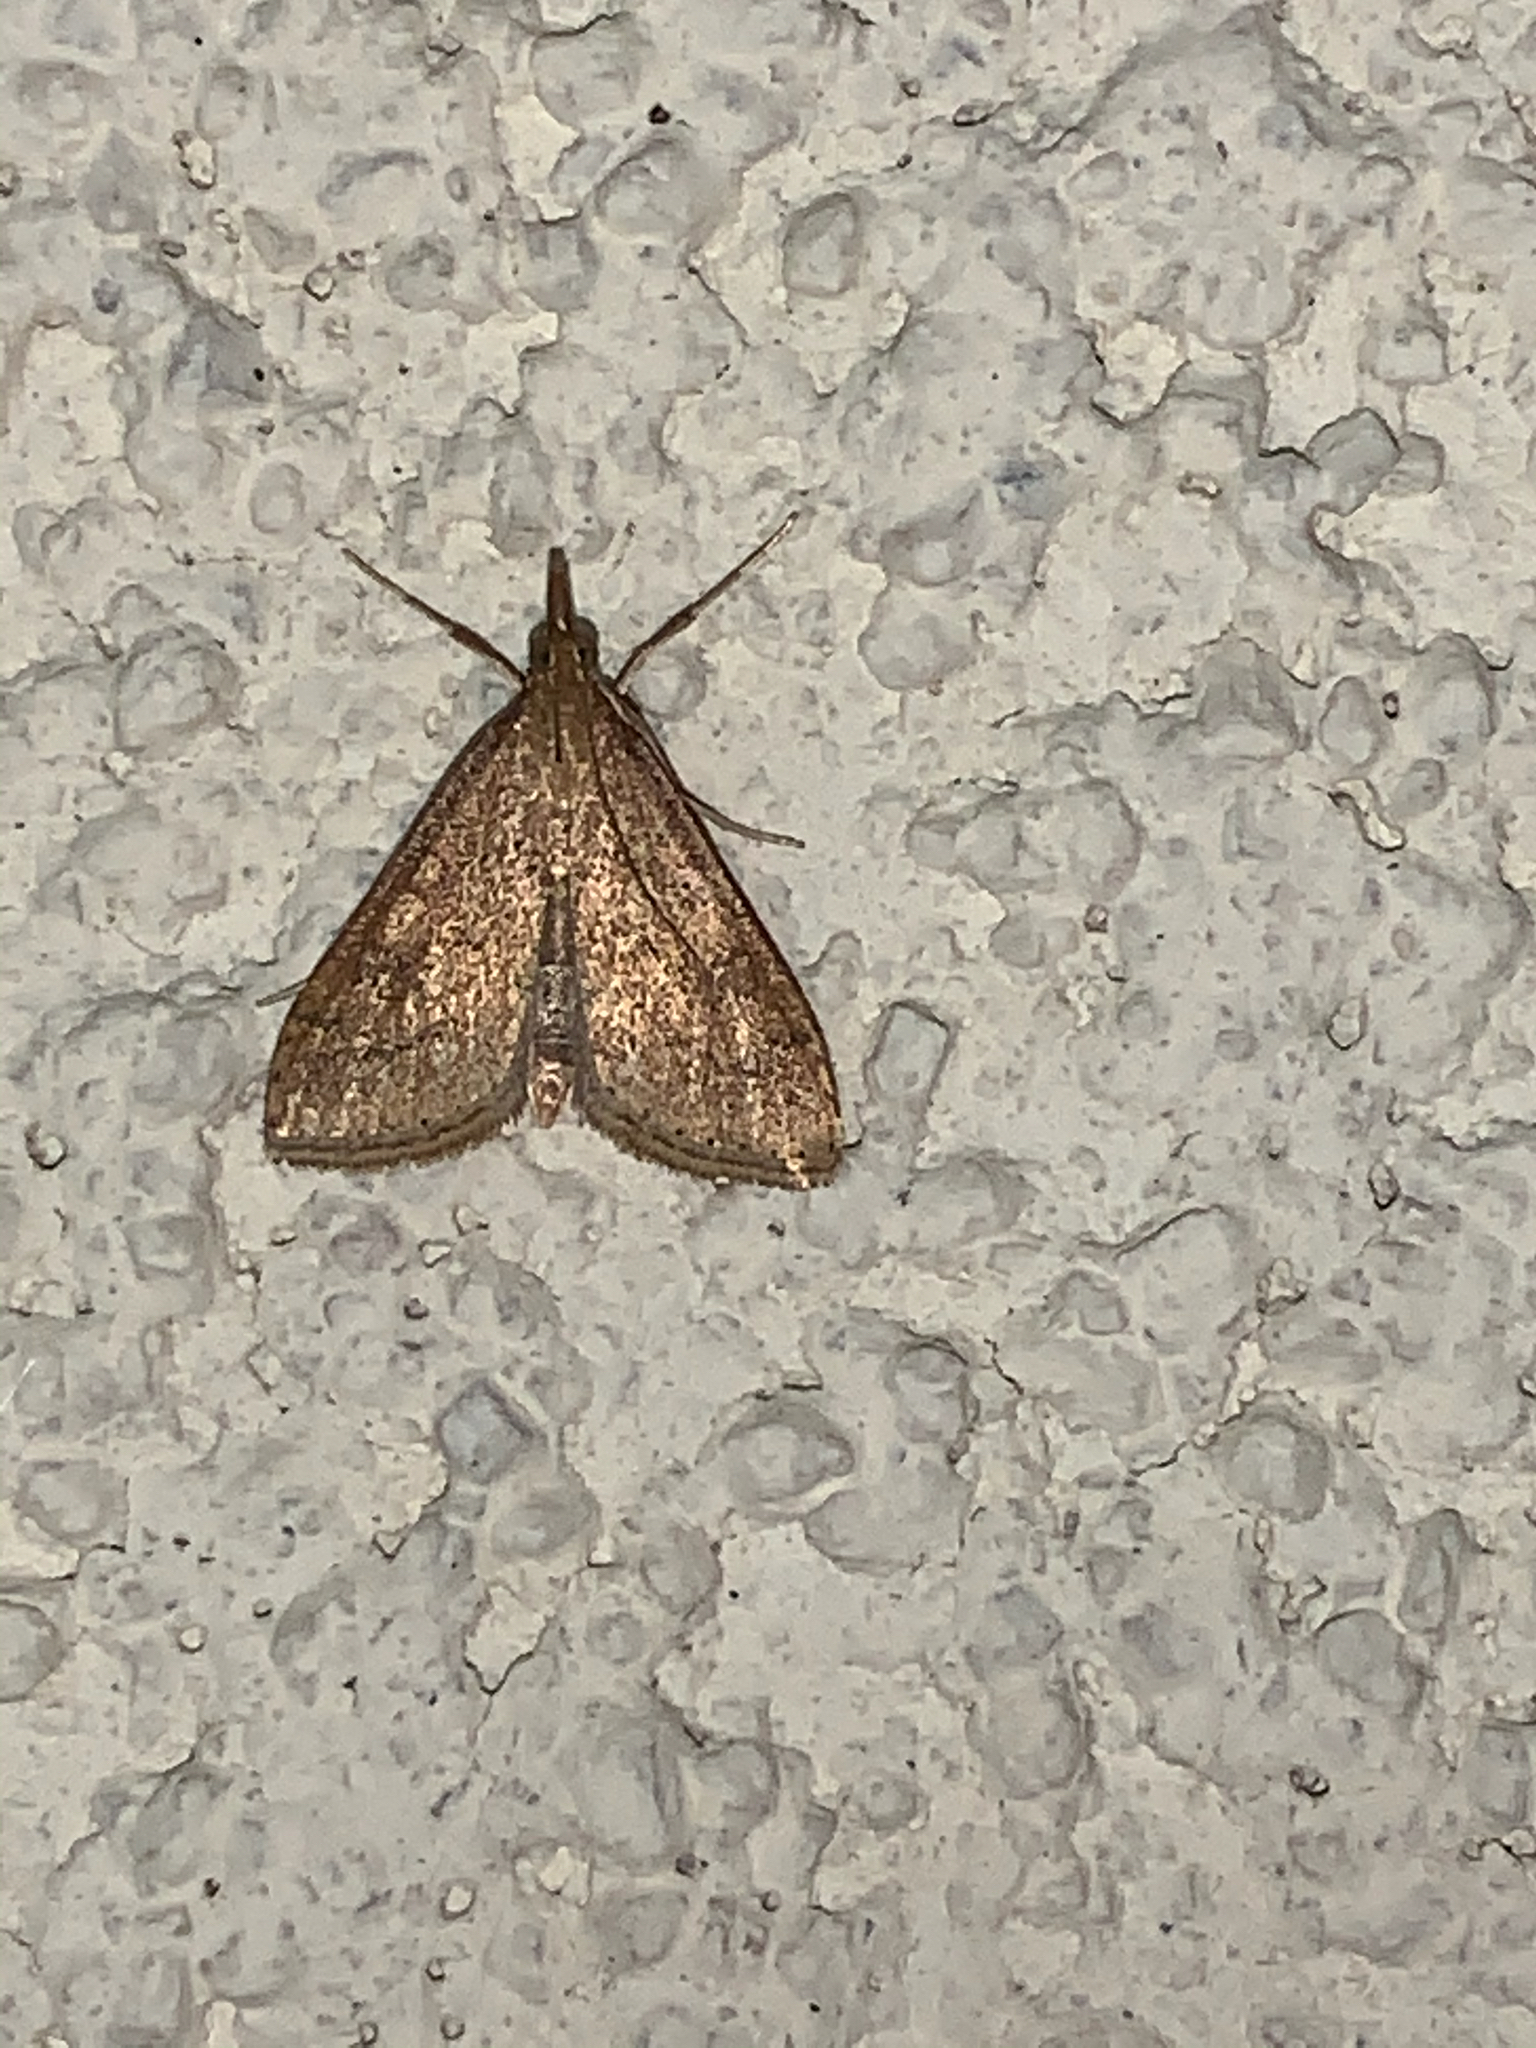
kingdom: Animalia
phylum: Arthropoda
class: Insecta
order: Lepidoptera
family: Crambidae
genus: Udea
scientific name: Udea rubigalis
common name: Celery leaftier moth
